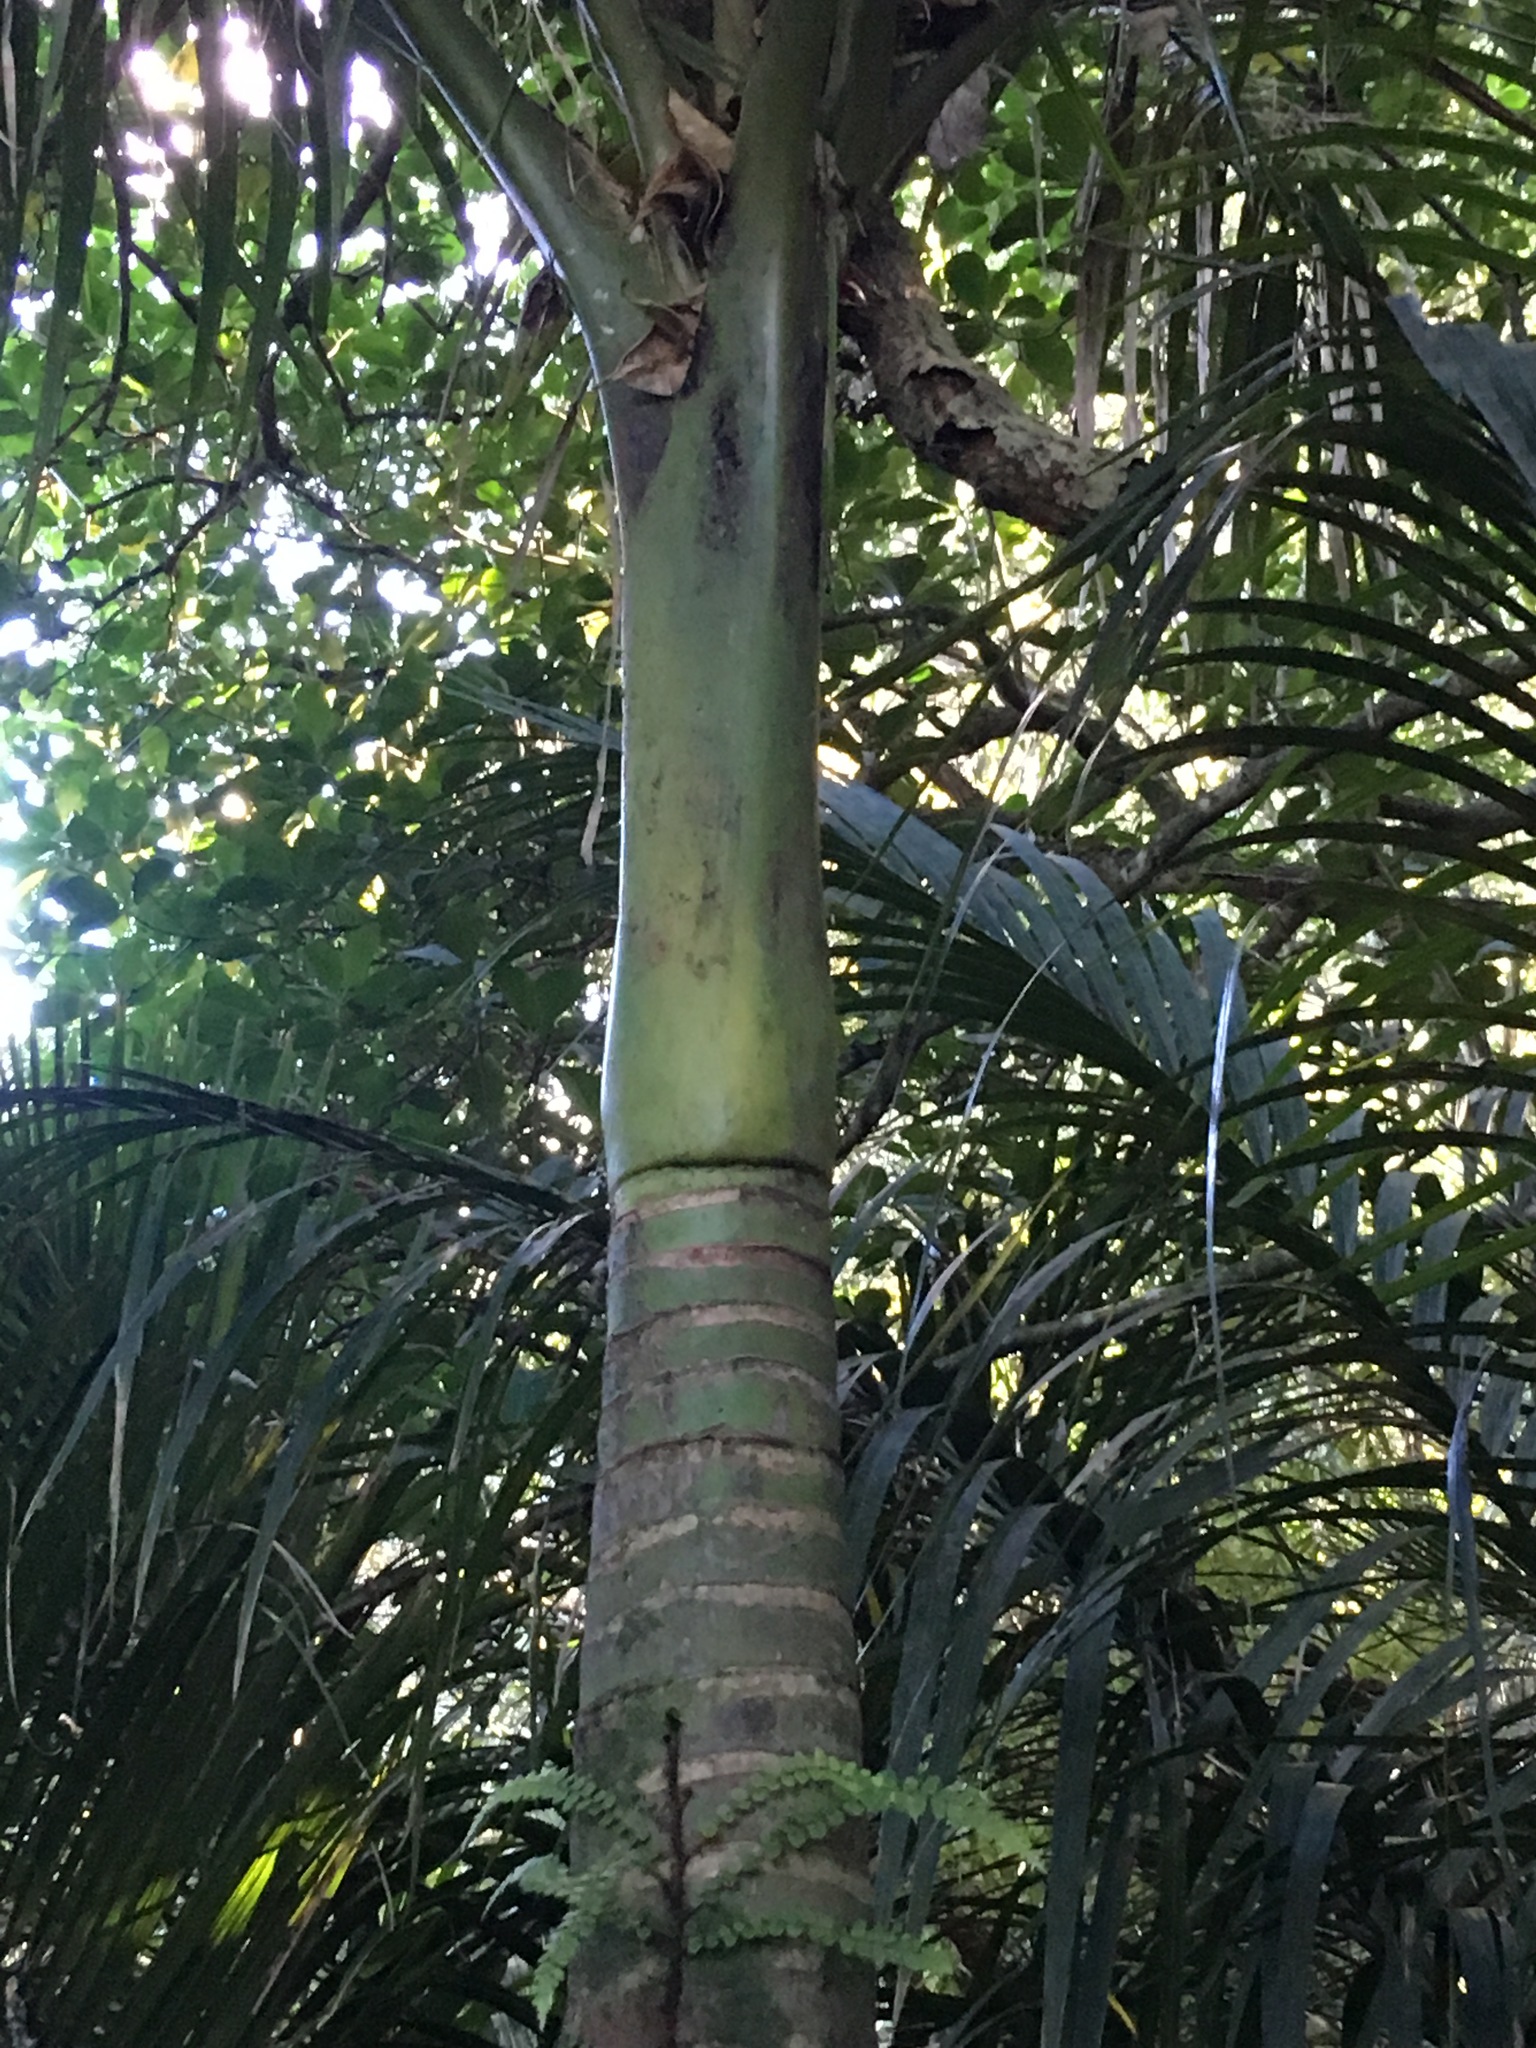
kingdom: Plantae
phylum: Tracheophyta
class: Liliopsida
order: Arecales
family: Arecaceae
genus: Rhopalostylis
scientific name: Rhopalostylis sapida
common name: Feather-duster palm
